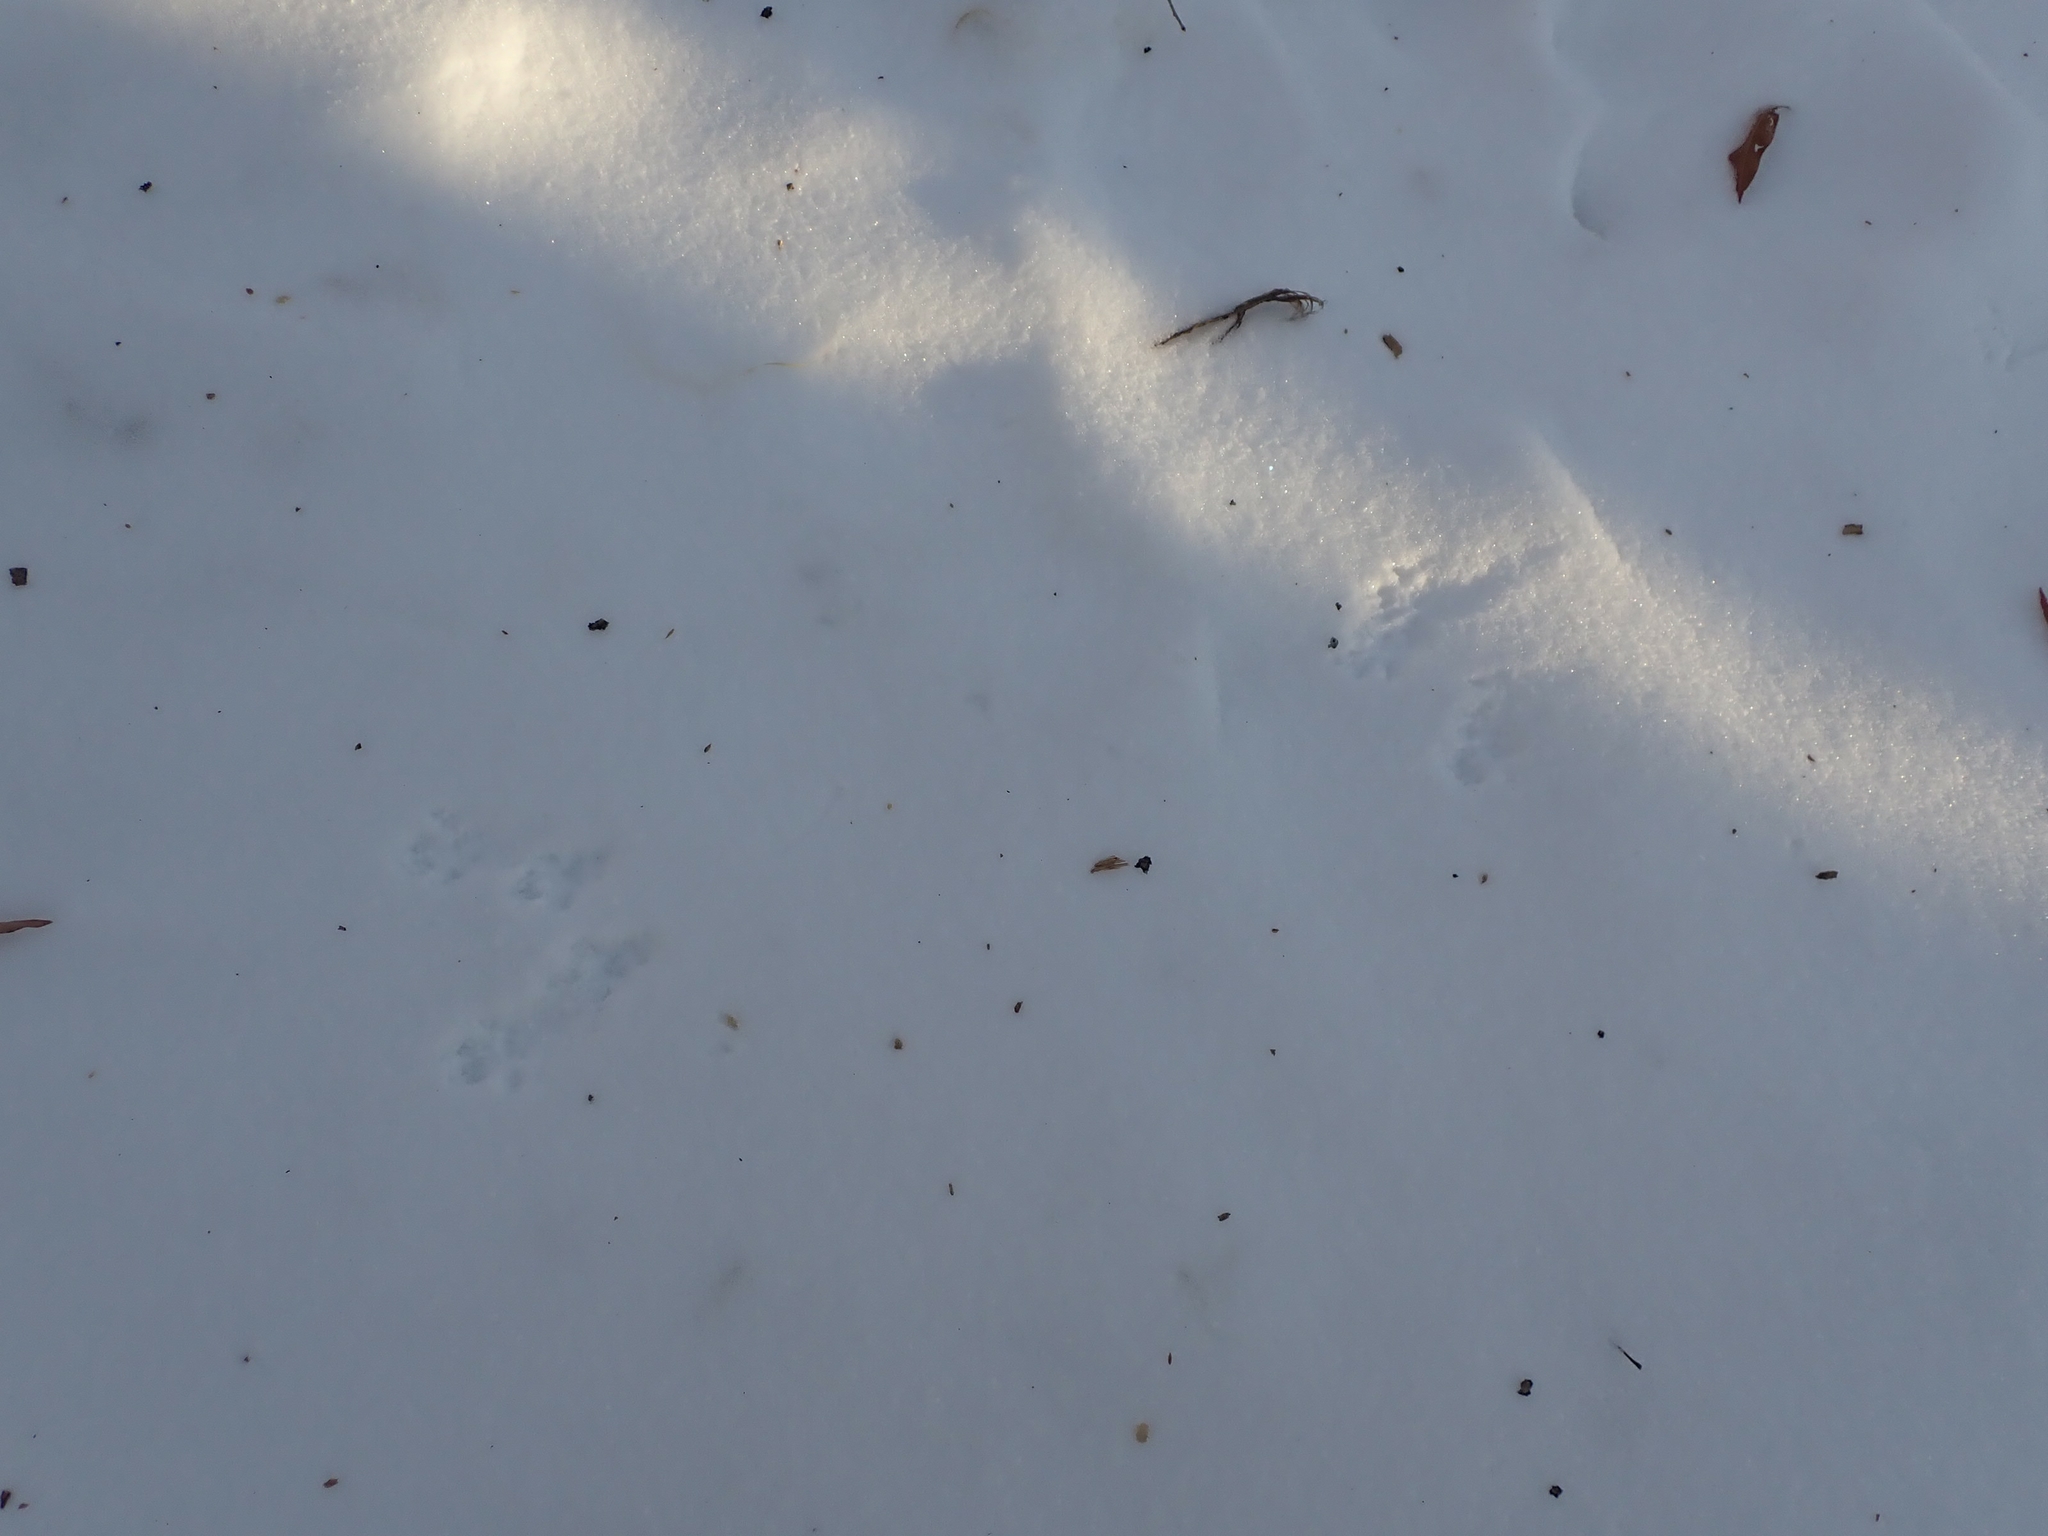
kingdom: Animalia
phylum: Chordata
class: Mammalia
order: Rodentia
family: Sciuridae
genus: Sciurus
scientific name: Sciurus carolinensis
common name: Eastern gray squirrel
